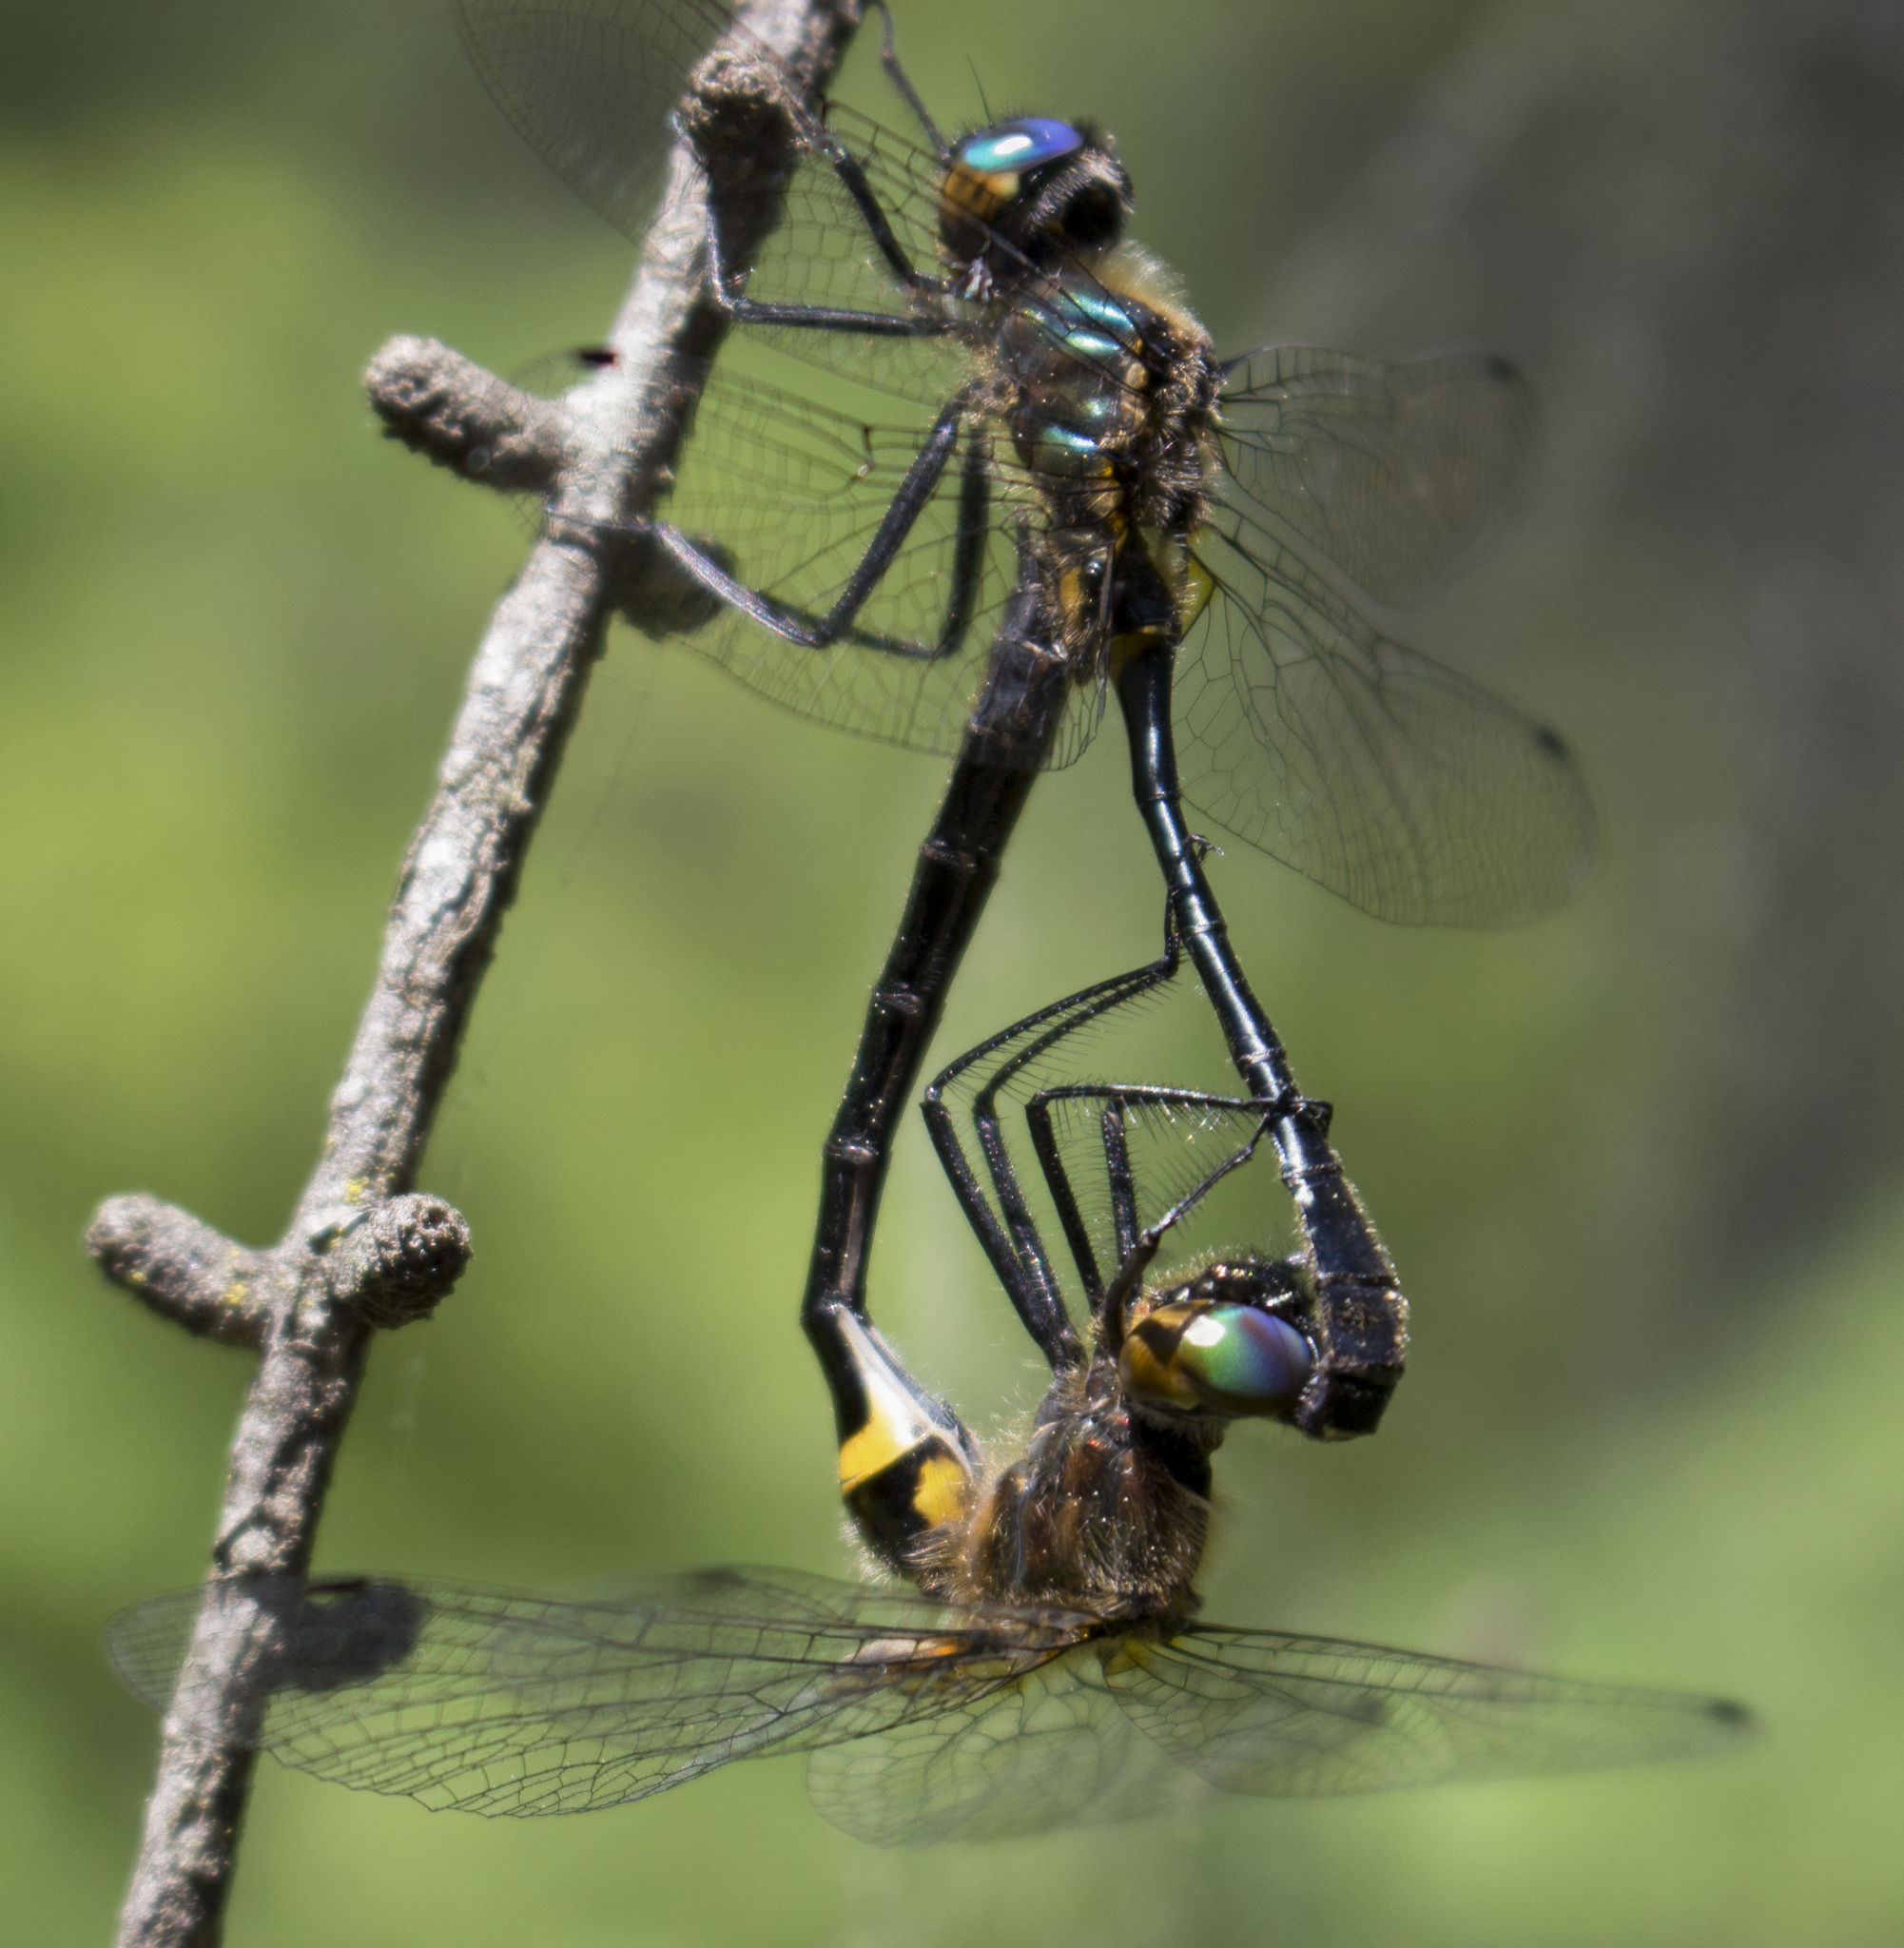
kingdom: Animalia
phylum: Arthropoda
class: Insecta
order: Odonata
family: Corduliidae
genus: Dorocordulia
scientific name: Dorocordulia libera
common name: Racket-tailed emerald
